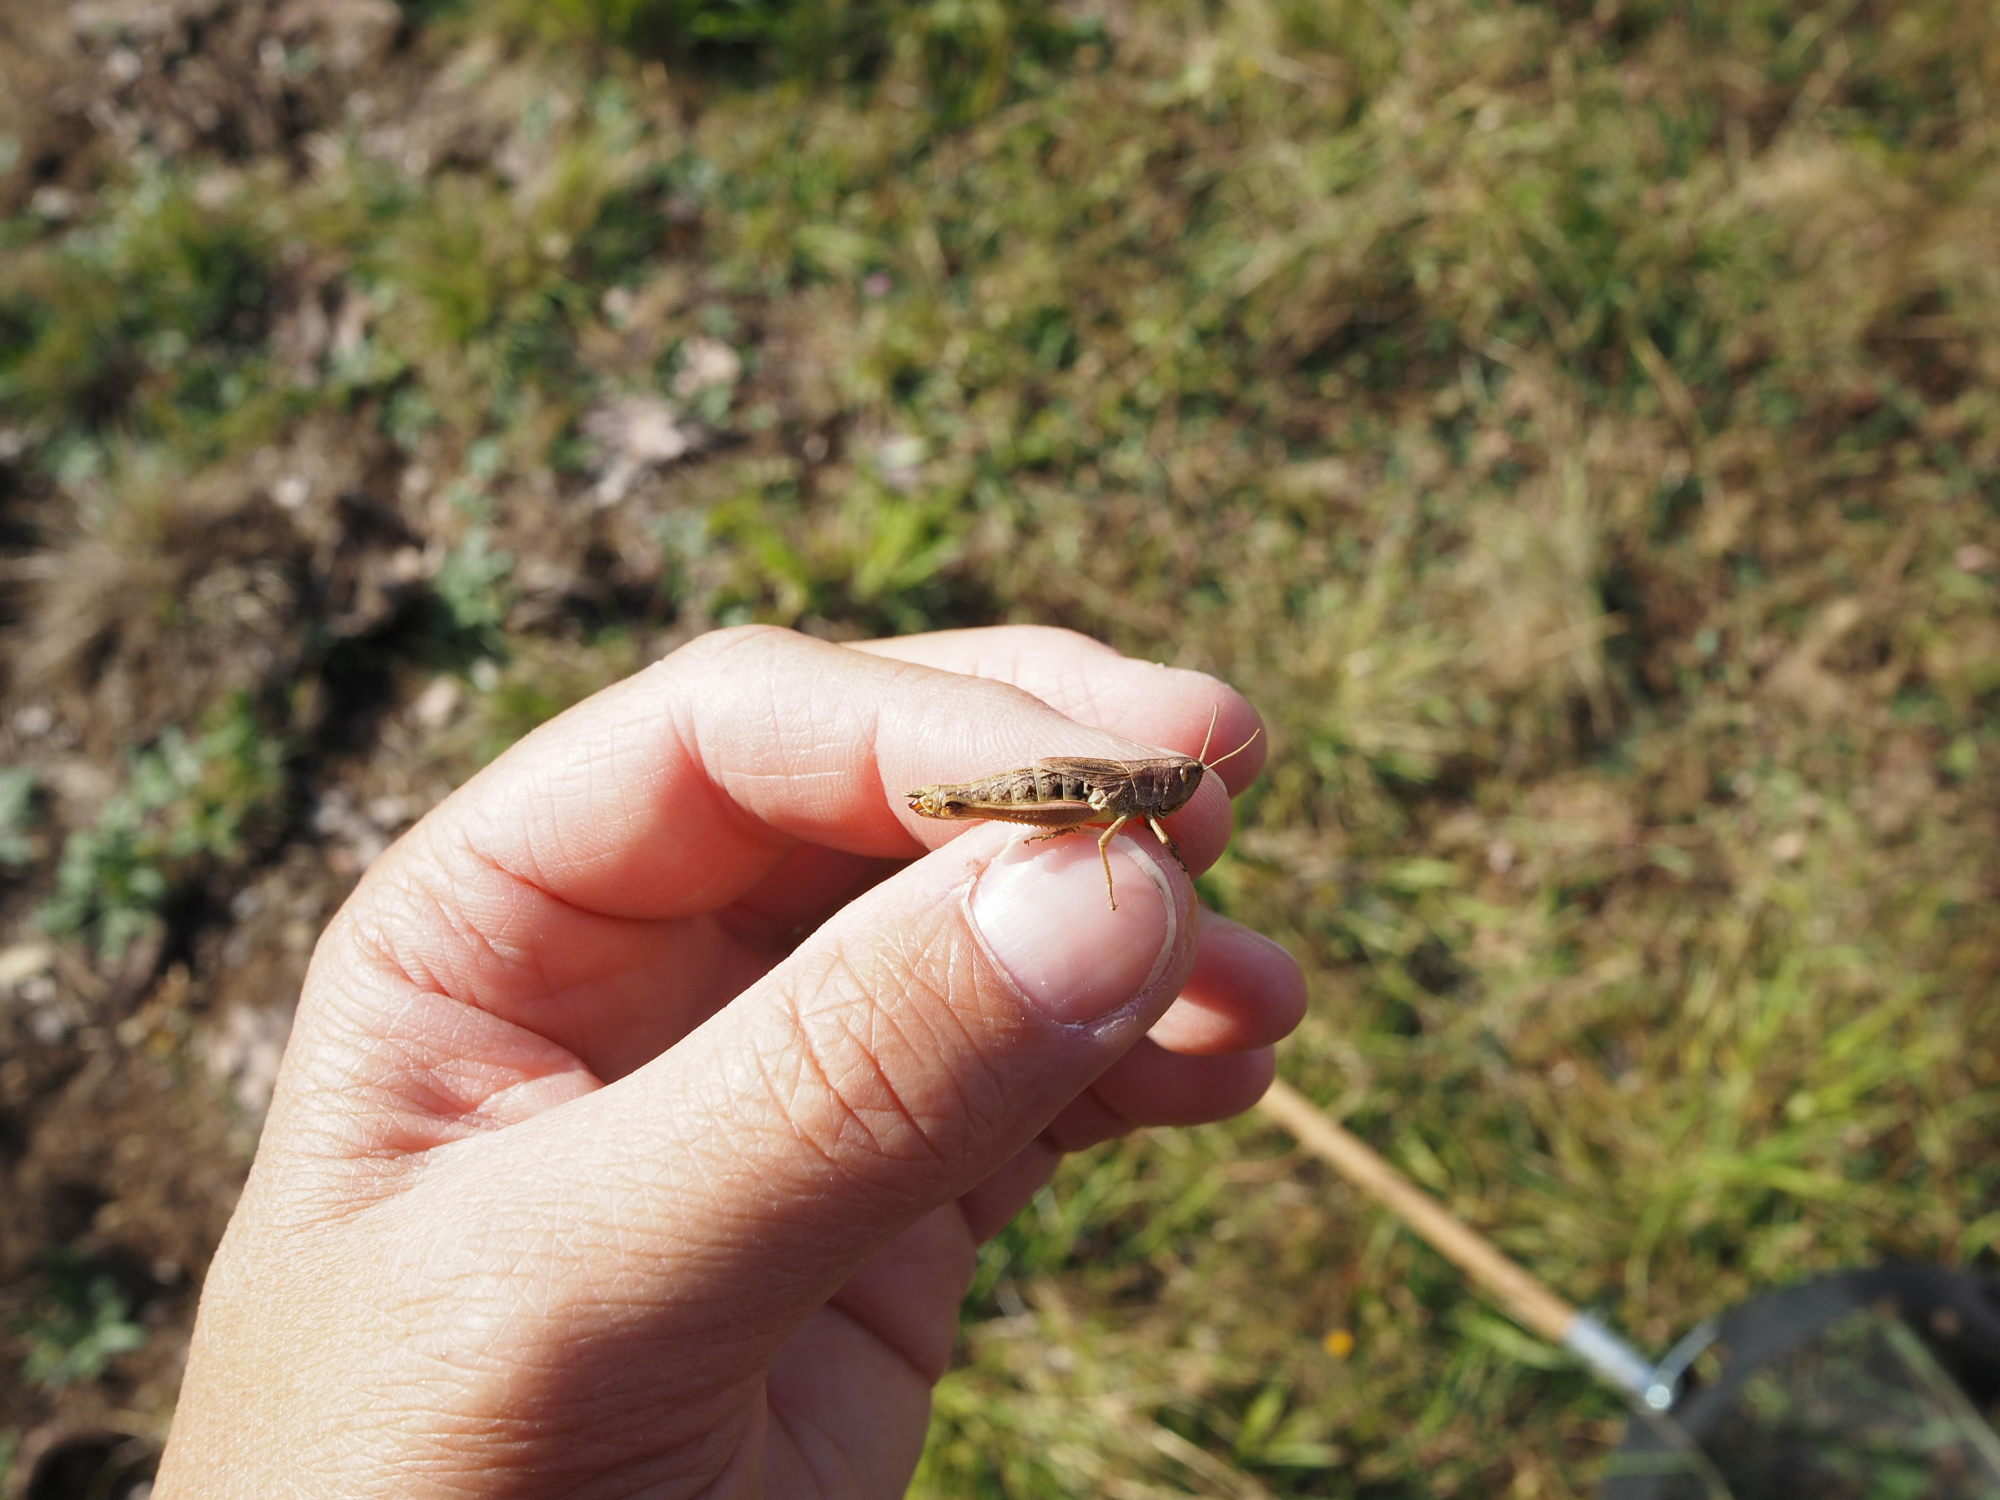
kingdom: Animalia
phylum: Arthropoda
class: Insecta
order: Orthoptera
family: Acrididae
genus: Pseudochorthippus
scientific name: Pseudochorthippus parallelus
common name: Meadow grasshopper
